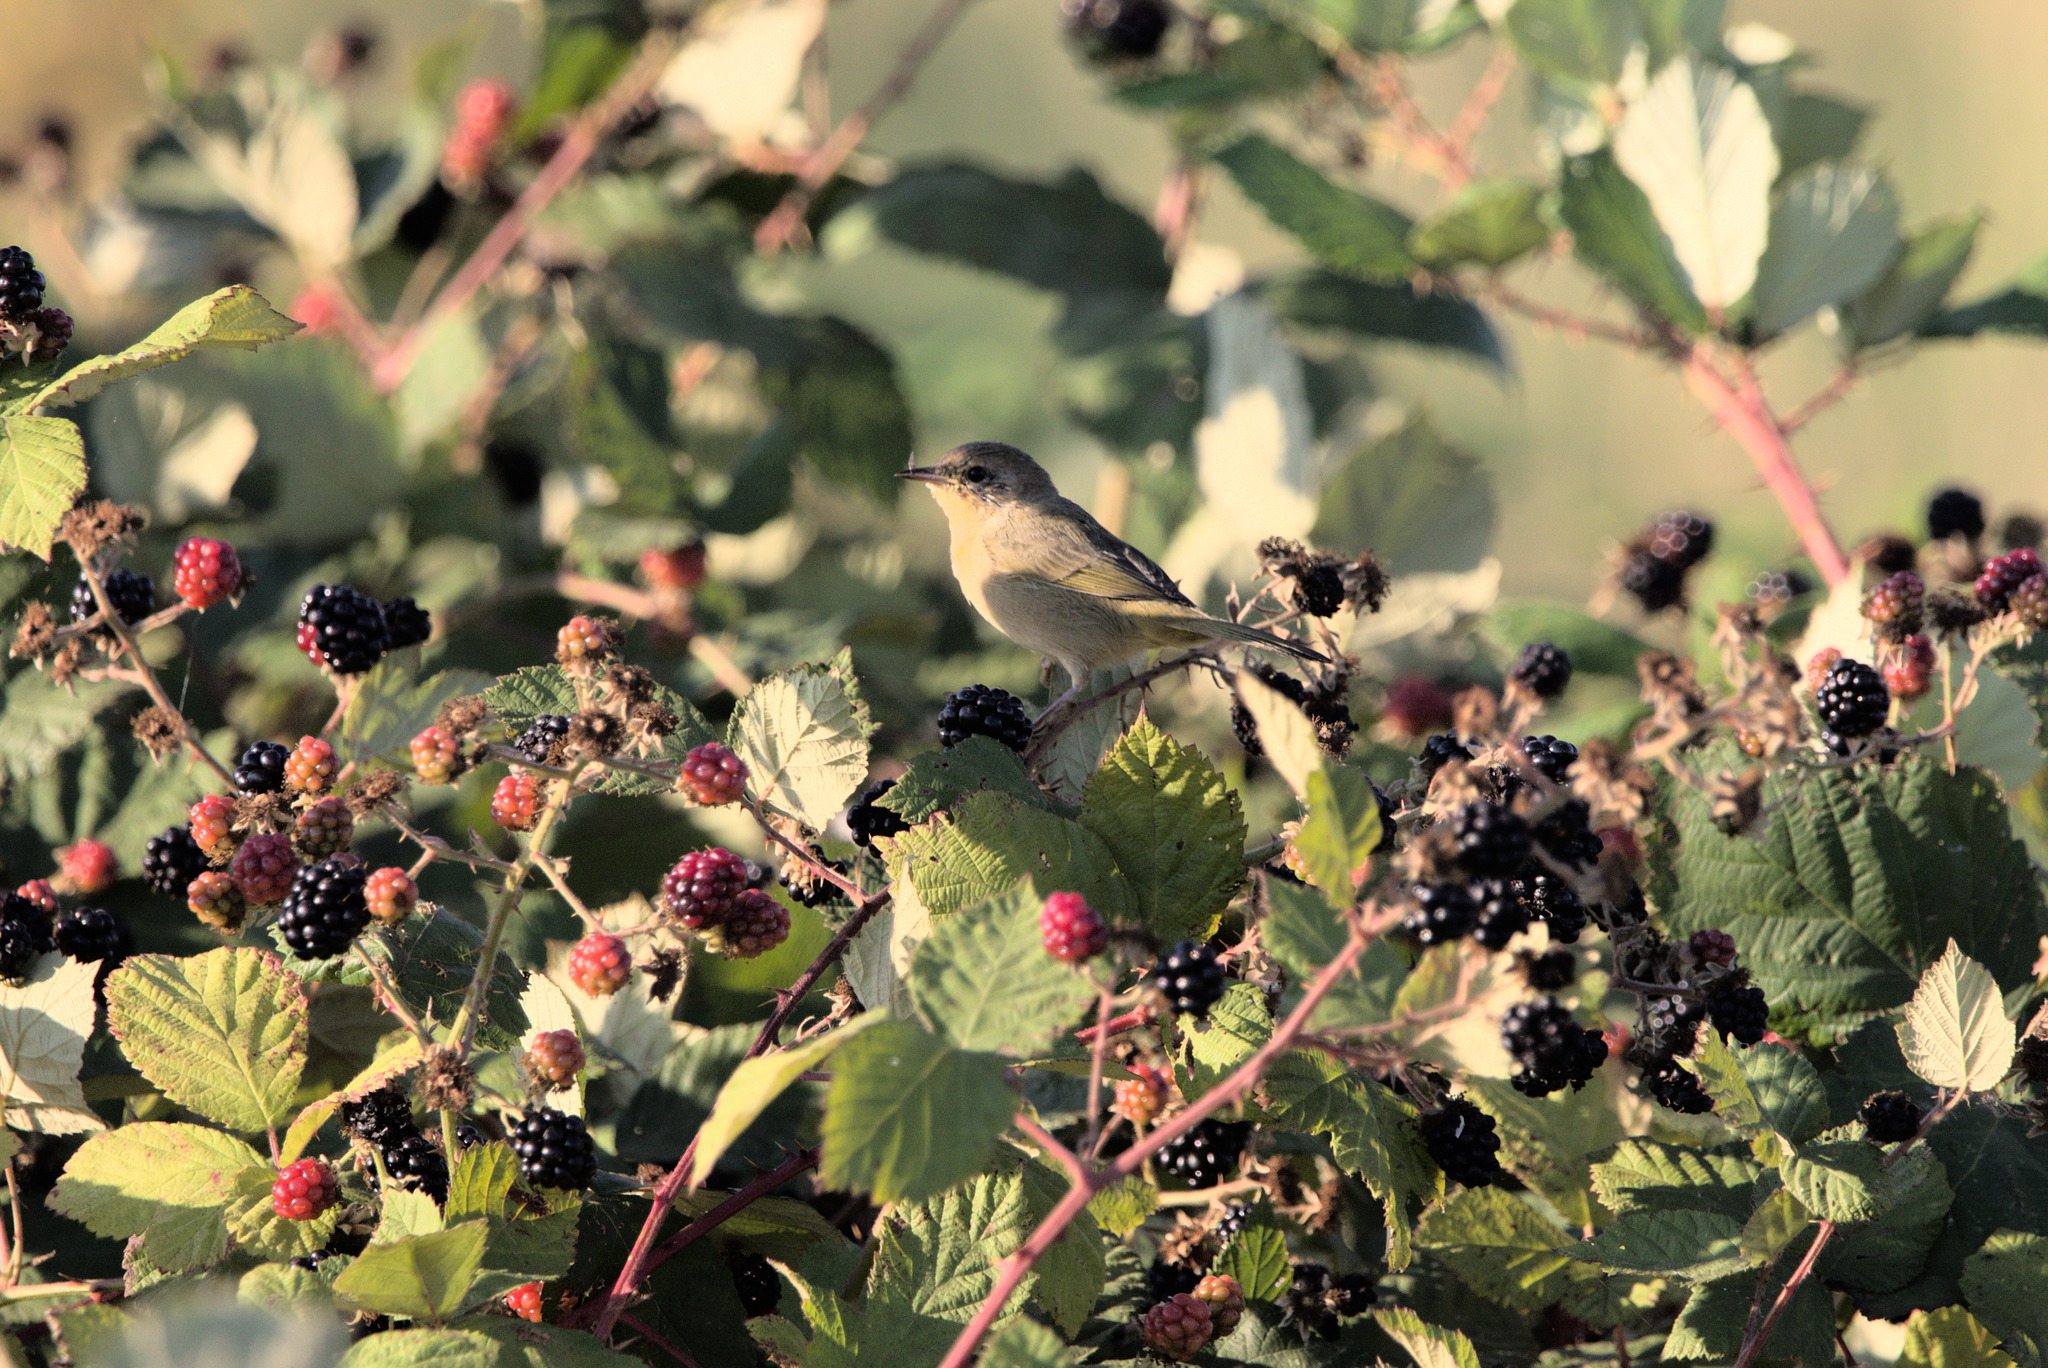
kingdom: Animalia
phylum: Chordata
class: Aves
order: Passeriformes
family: Parulidae
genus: Geothlypis
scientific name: Geothlypis trichas
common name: Common yellowthroat
